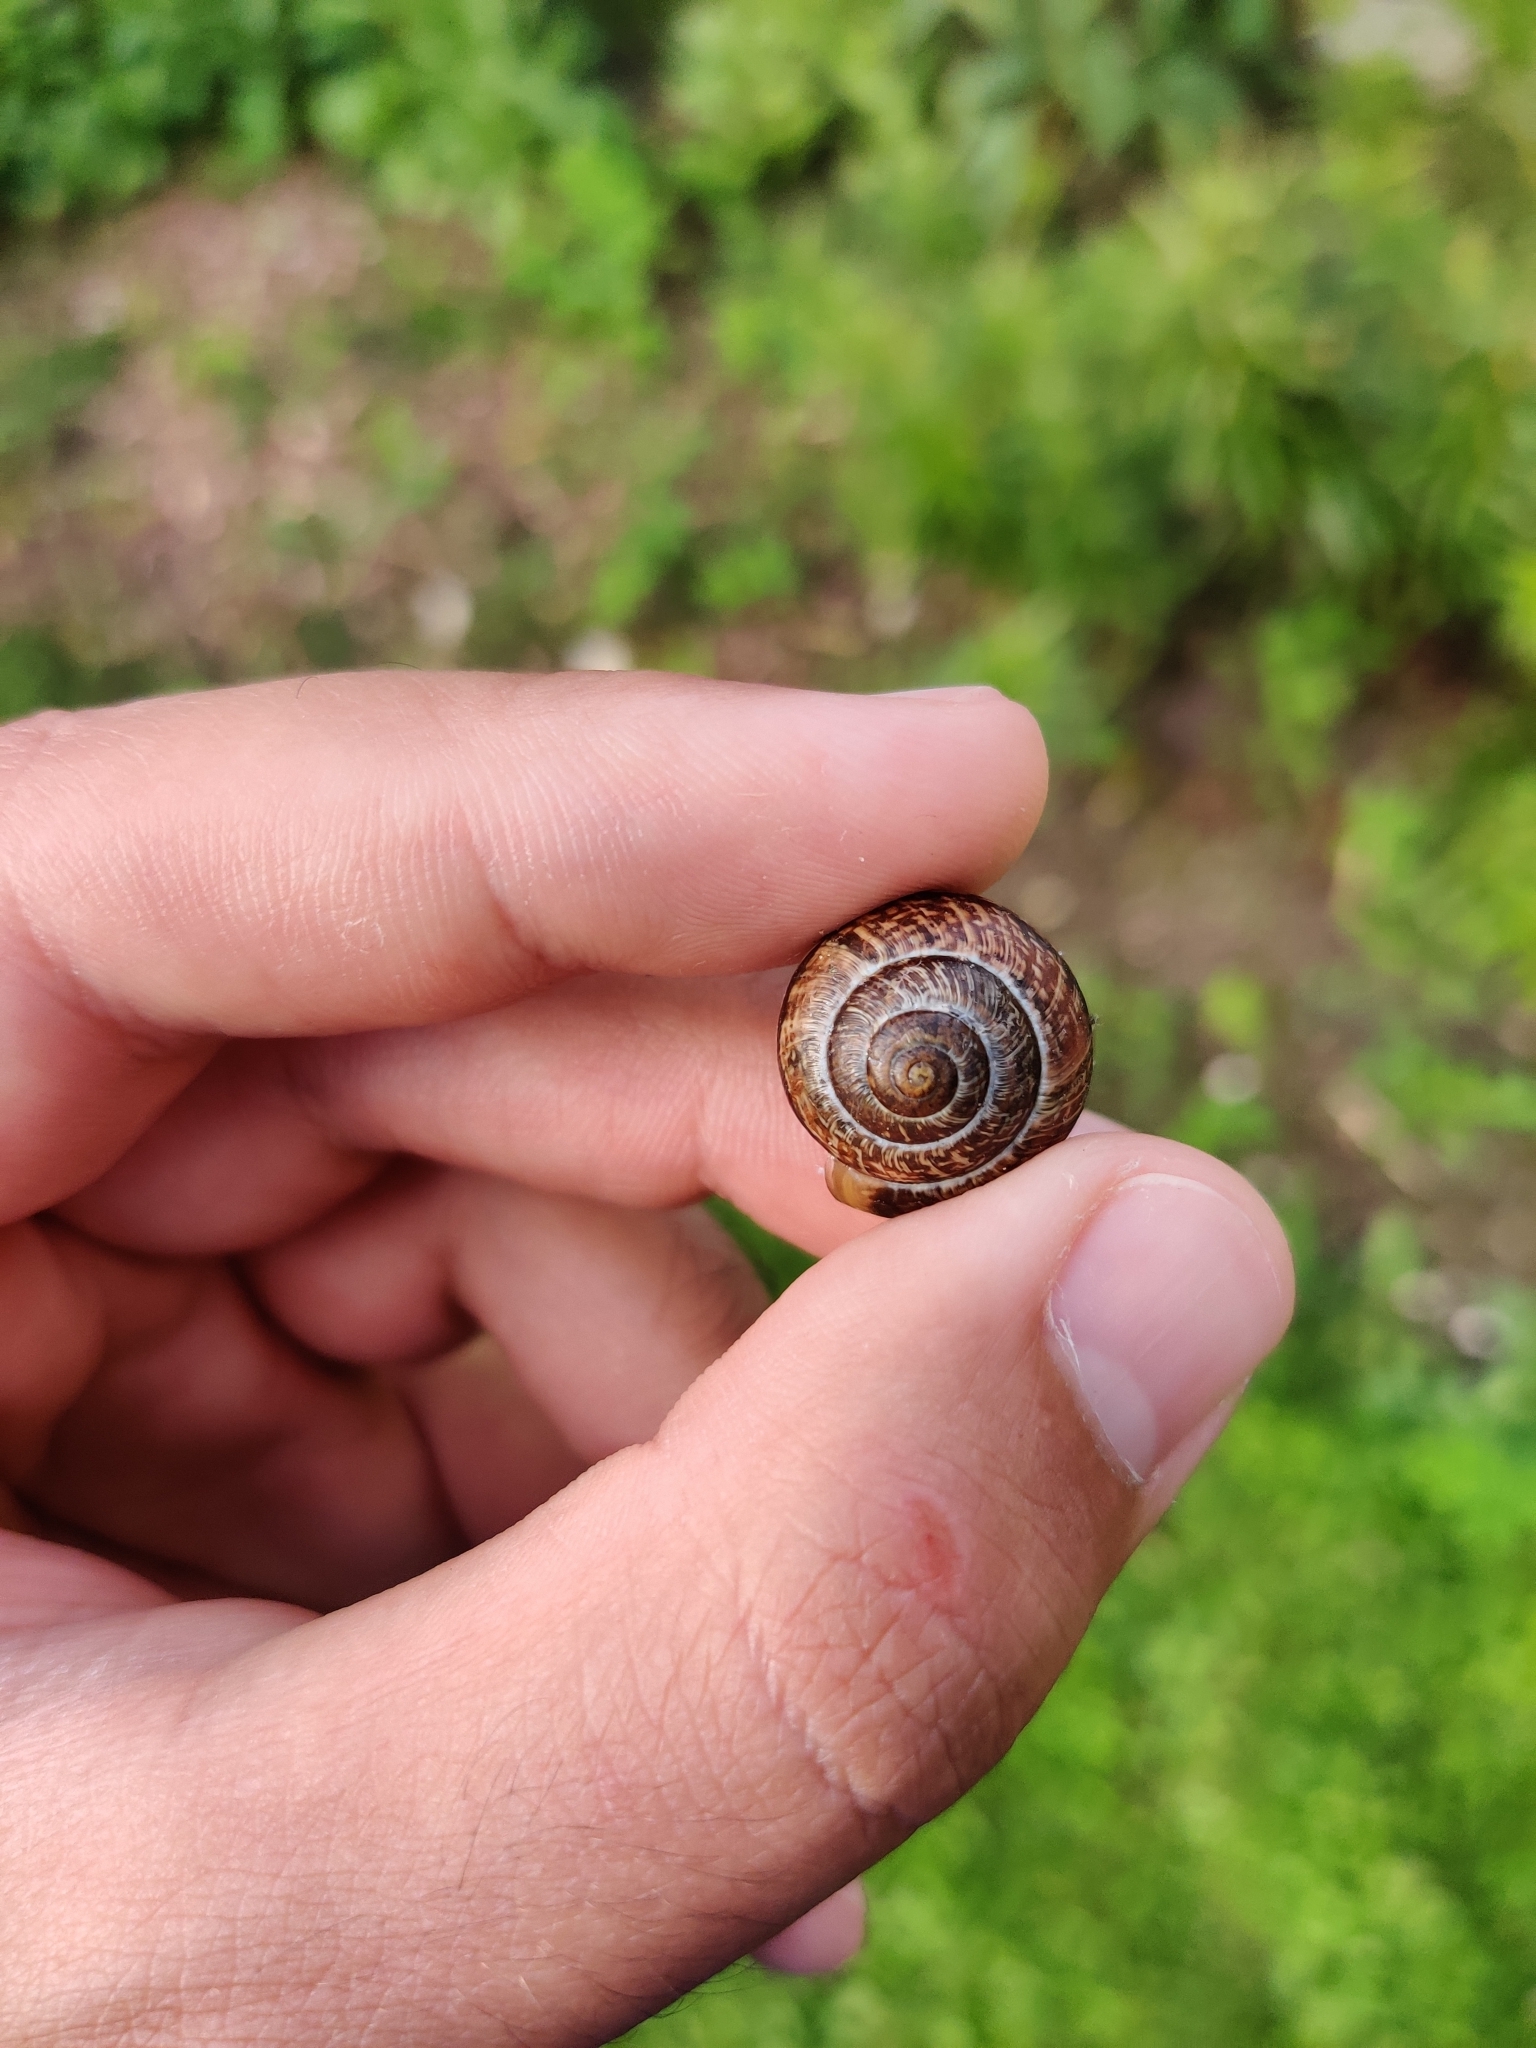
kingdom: Animalia
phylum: Mollusca
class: Gastropoda
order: Stylommatophora
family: Helicidae
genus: Arianta
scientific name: Arianta arbustorum
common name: Copse snail
